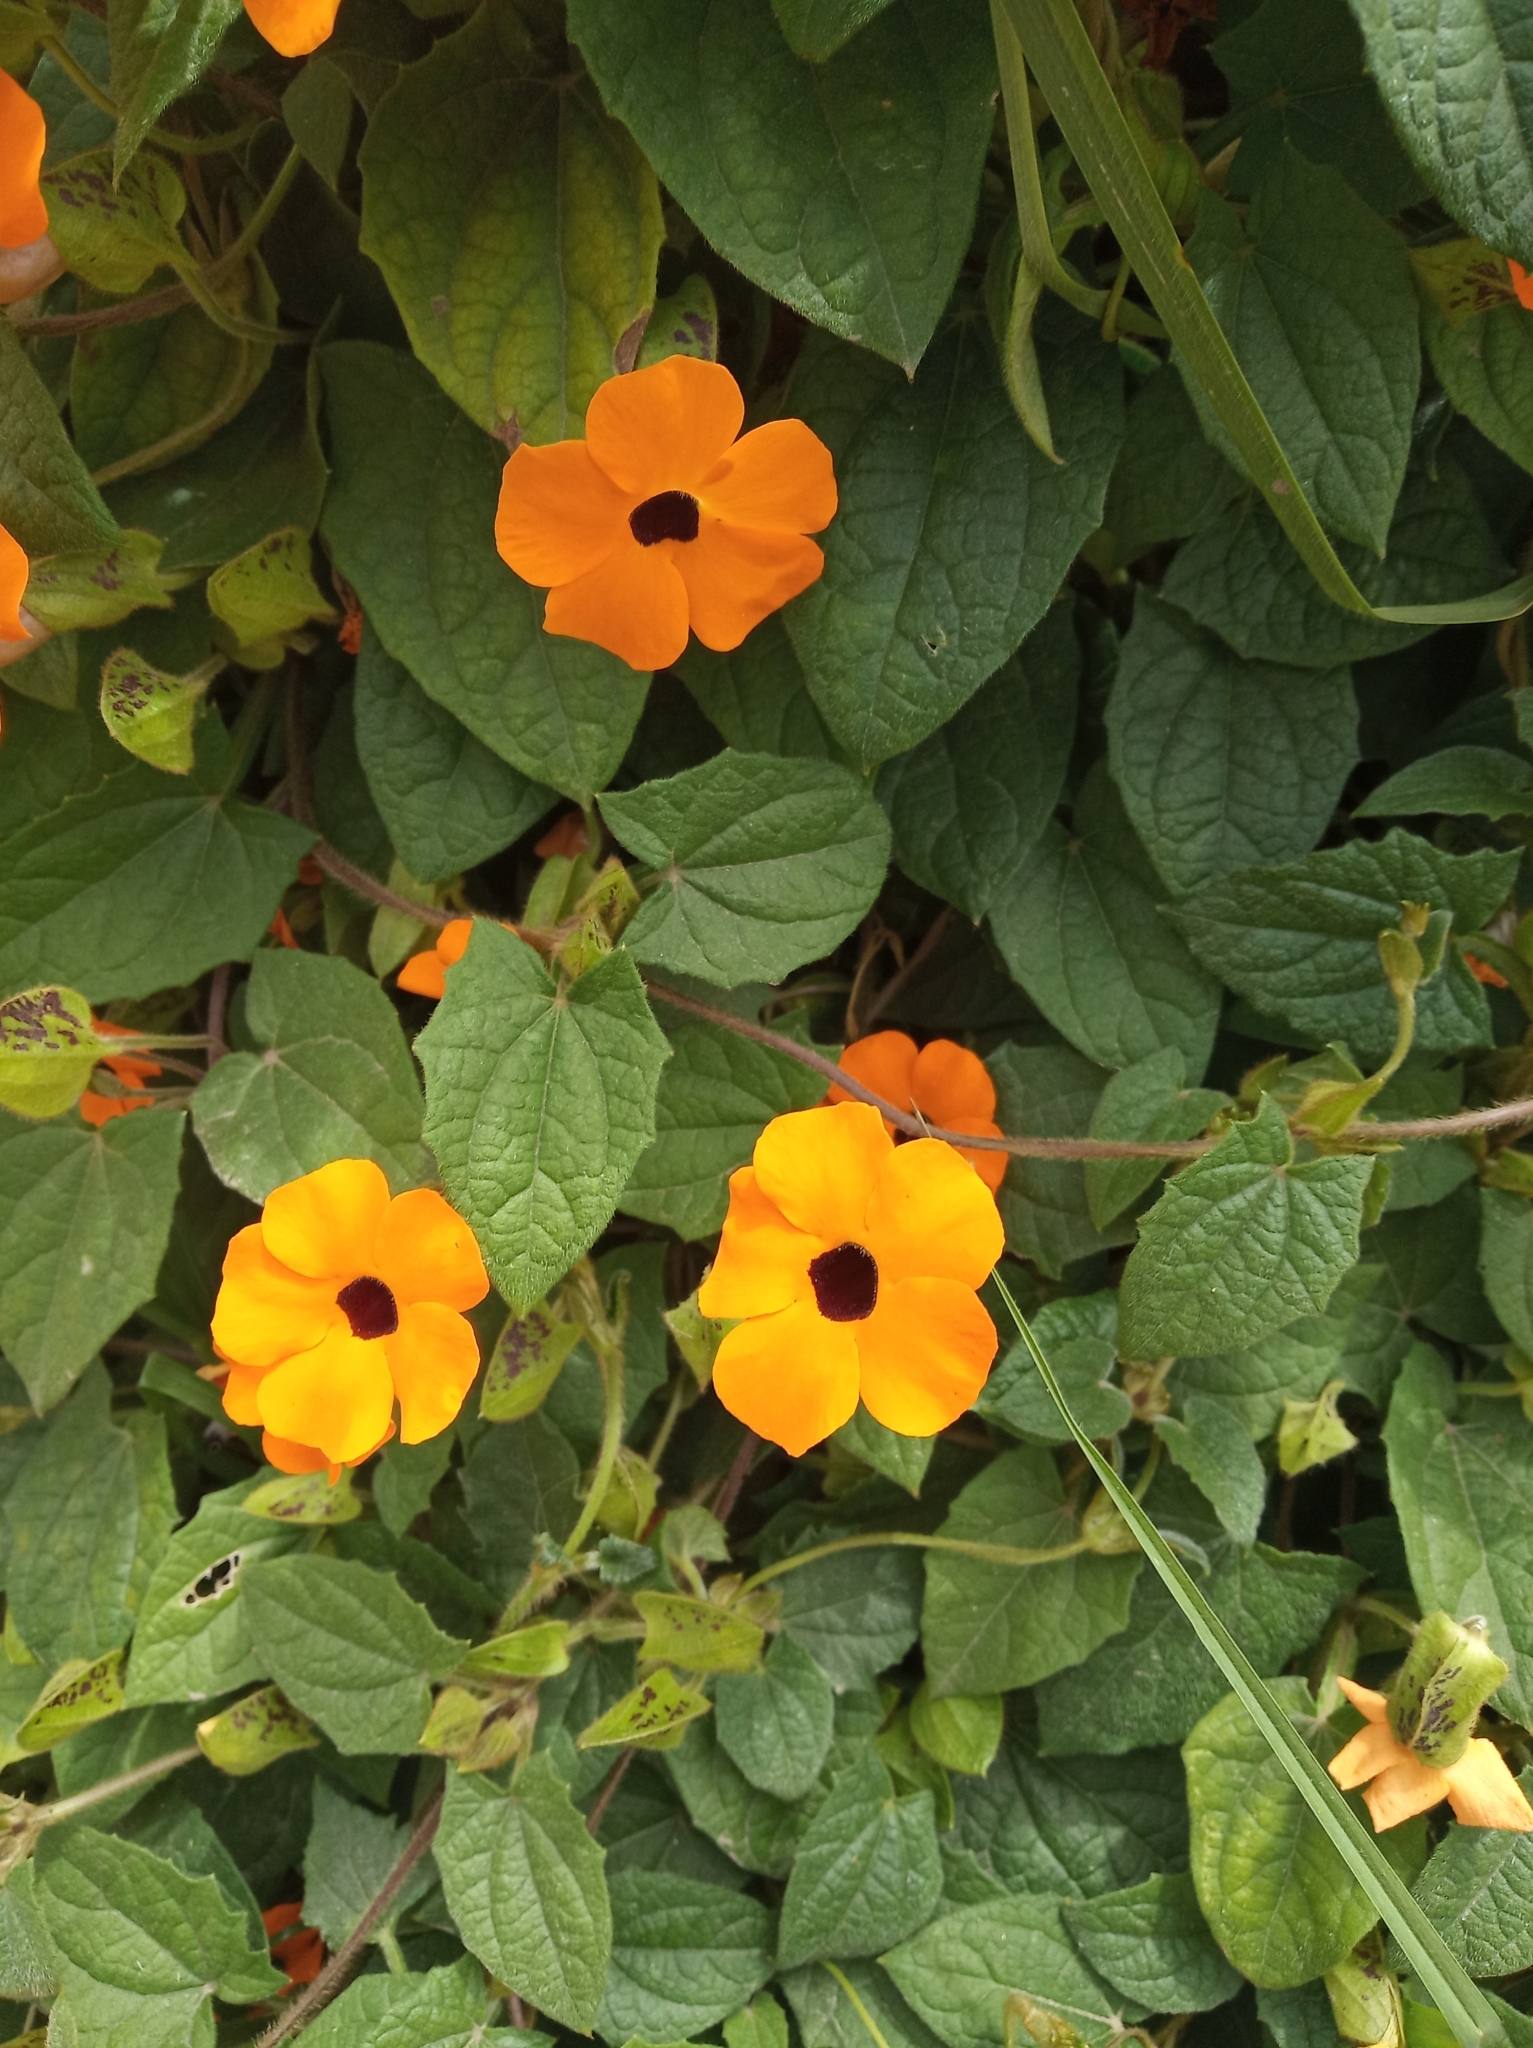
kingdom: Plantae
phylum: Tracheophyta
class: Magnoliopsida
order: Lamiales
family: Acanthaceae
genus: Thunbergia
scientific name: Thunbergia alata
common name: Blackeyed susan vine
